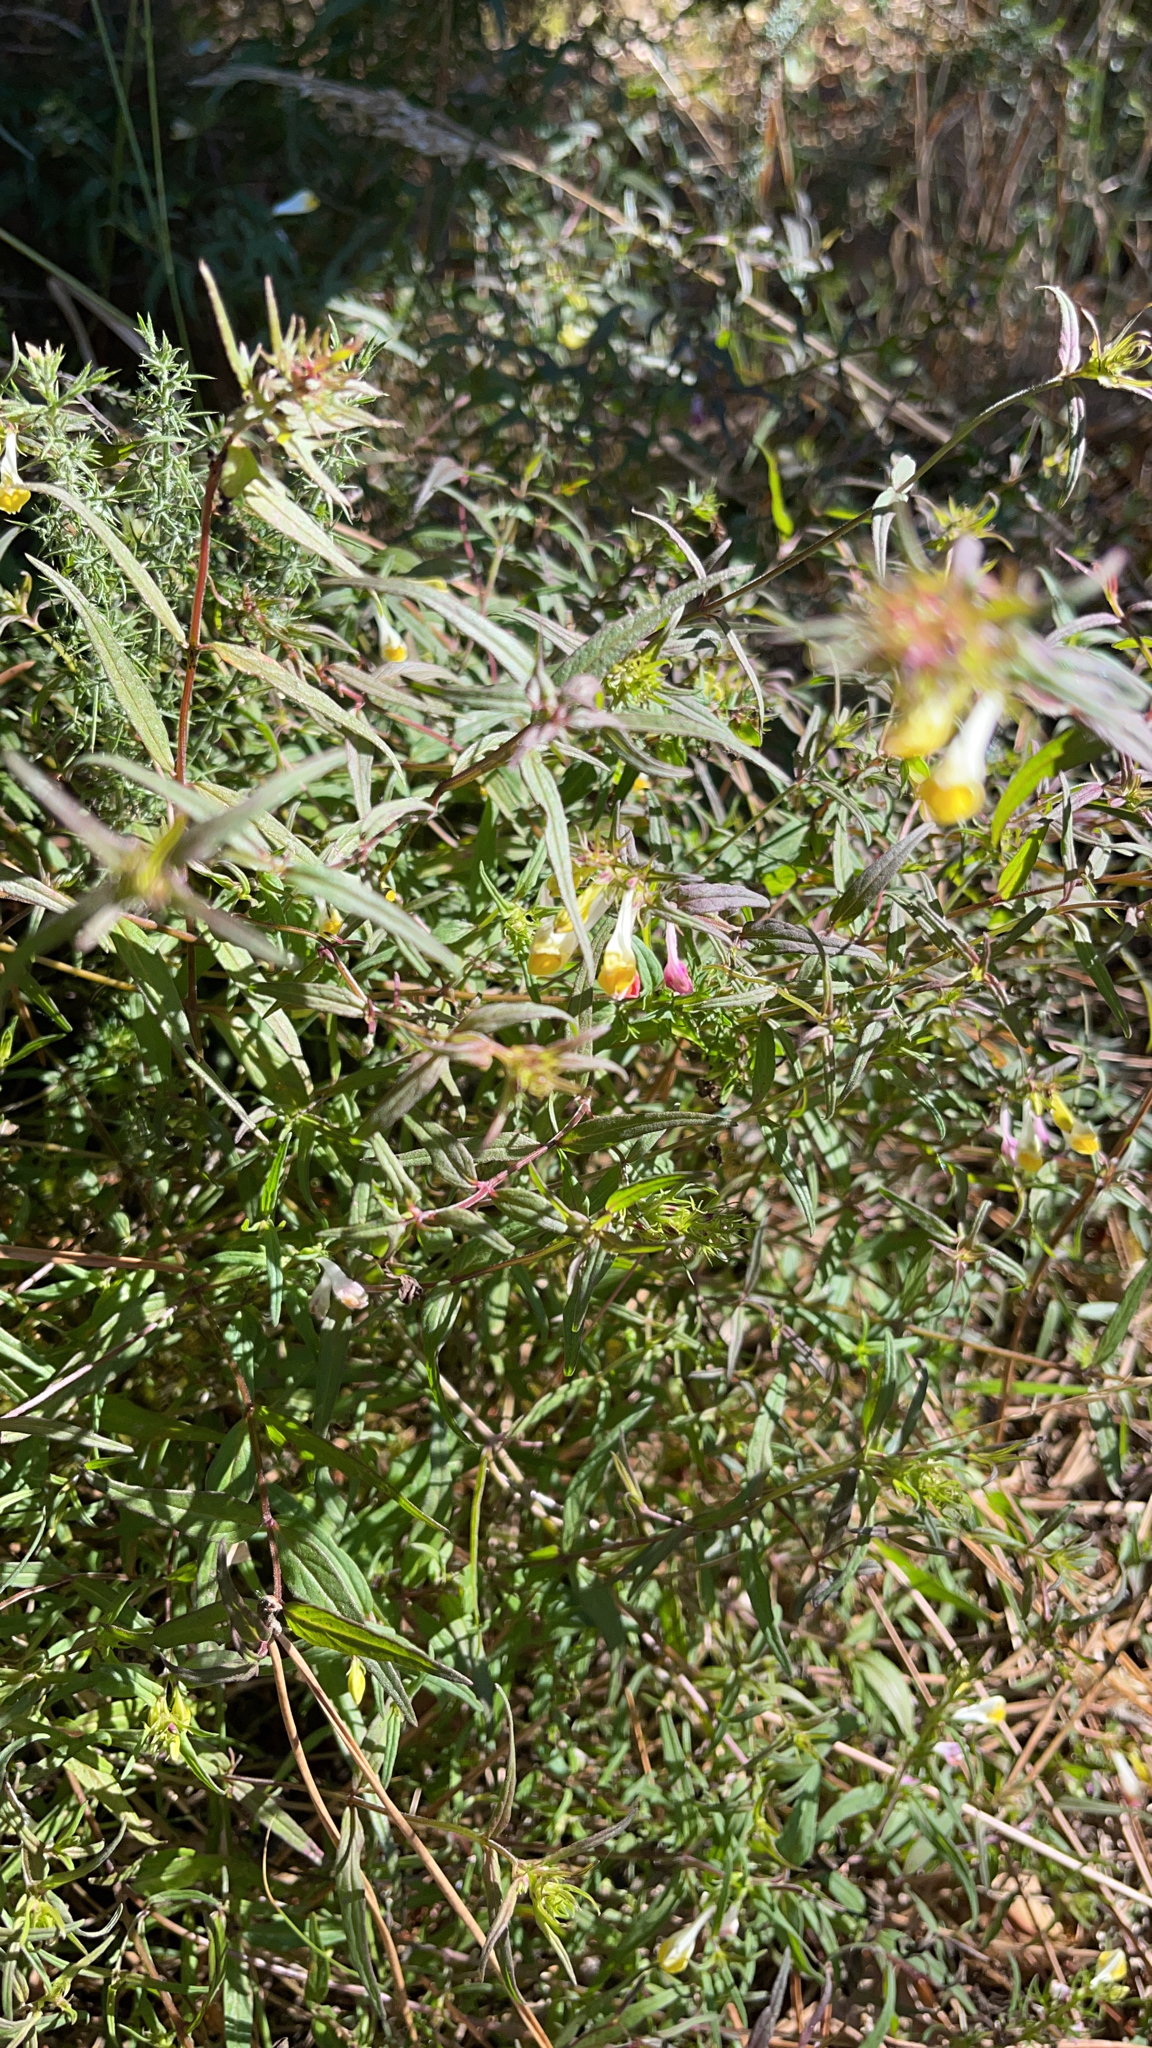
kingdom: Plantae
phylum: Tracheophyta
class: Magnoliopsida
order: Lamiales
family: Orobanchaceae
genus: Melampyrum
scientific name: Melampyrum pratense
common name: Common cow-wheat
